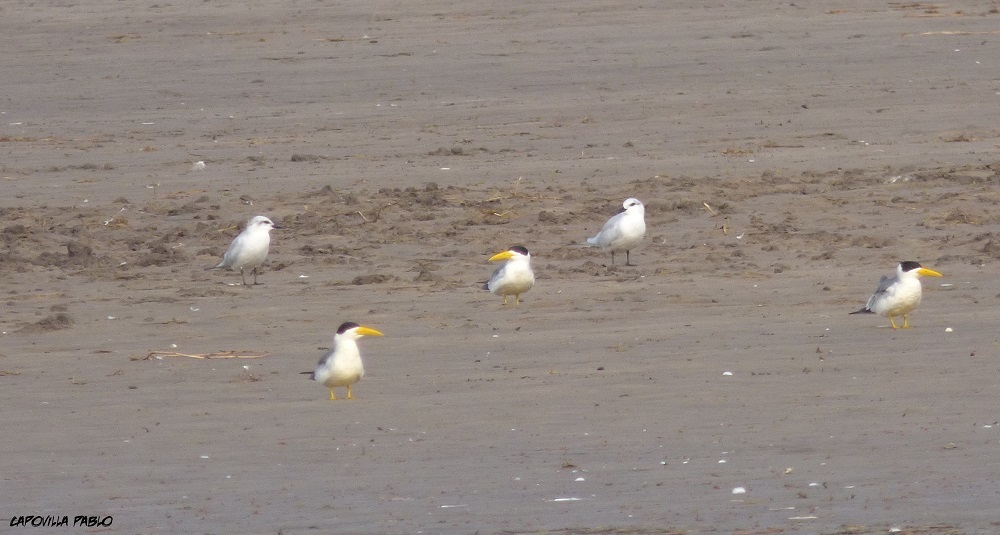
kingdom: Animalia
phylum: Chordata
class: Aves
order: Charadriiformes
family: Laridae
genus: Gelochelidon
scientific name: Gelochelidon nilotica
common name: Gull-billed tern
